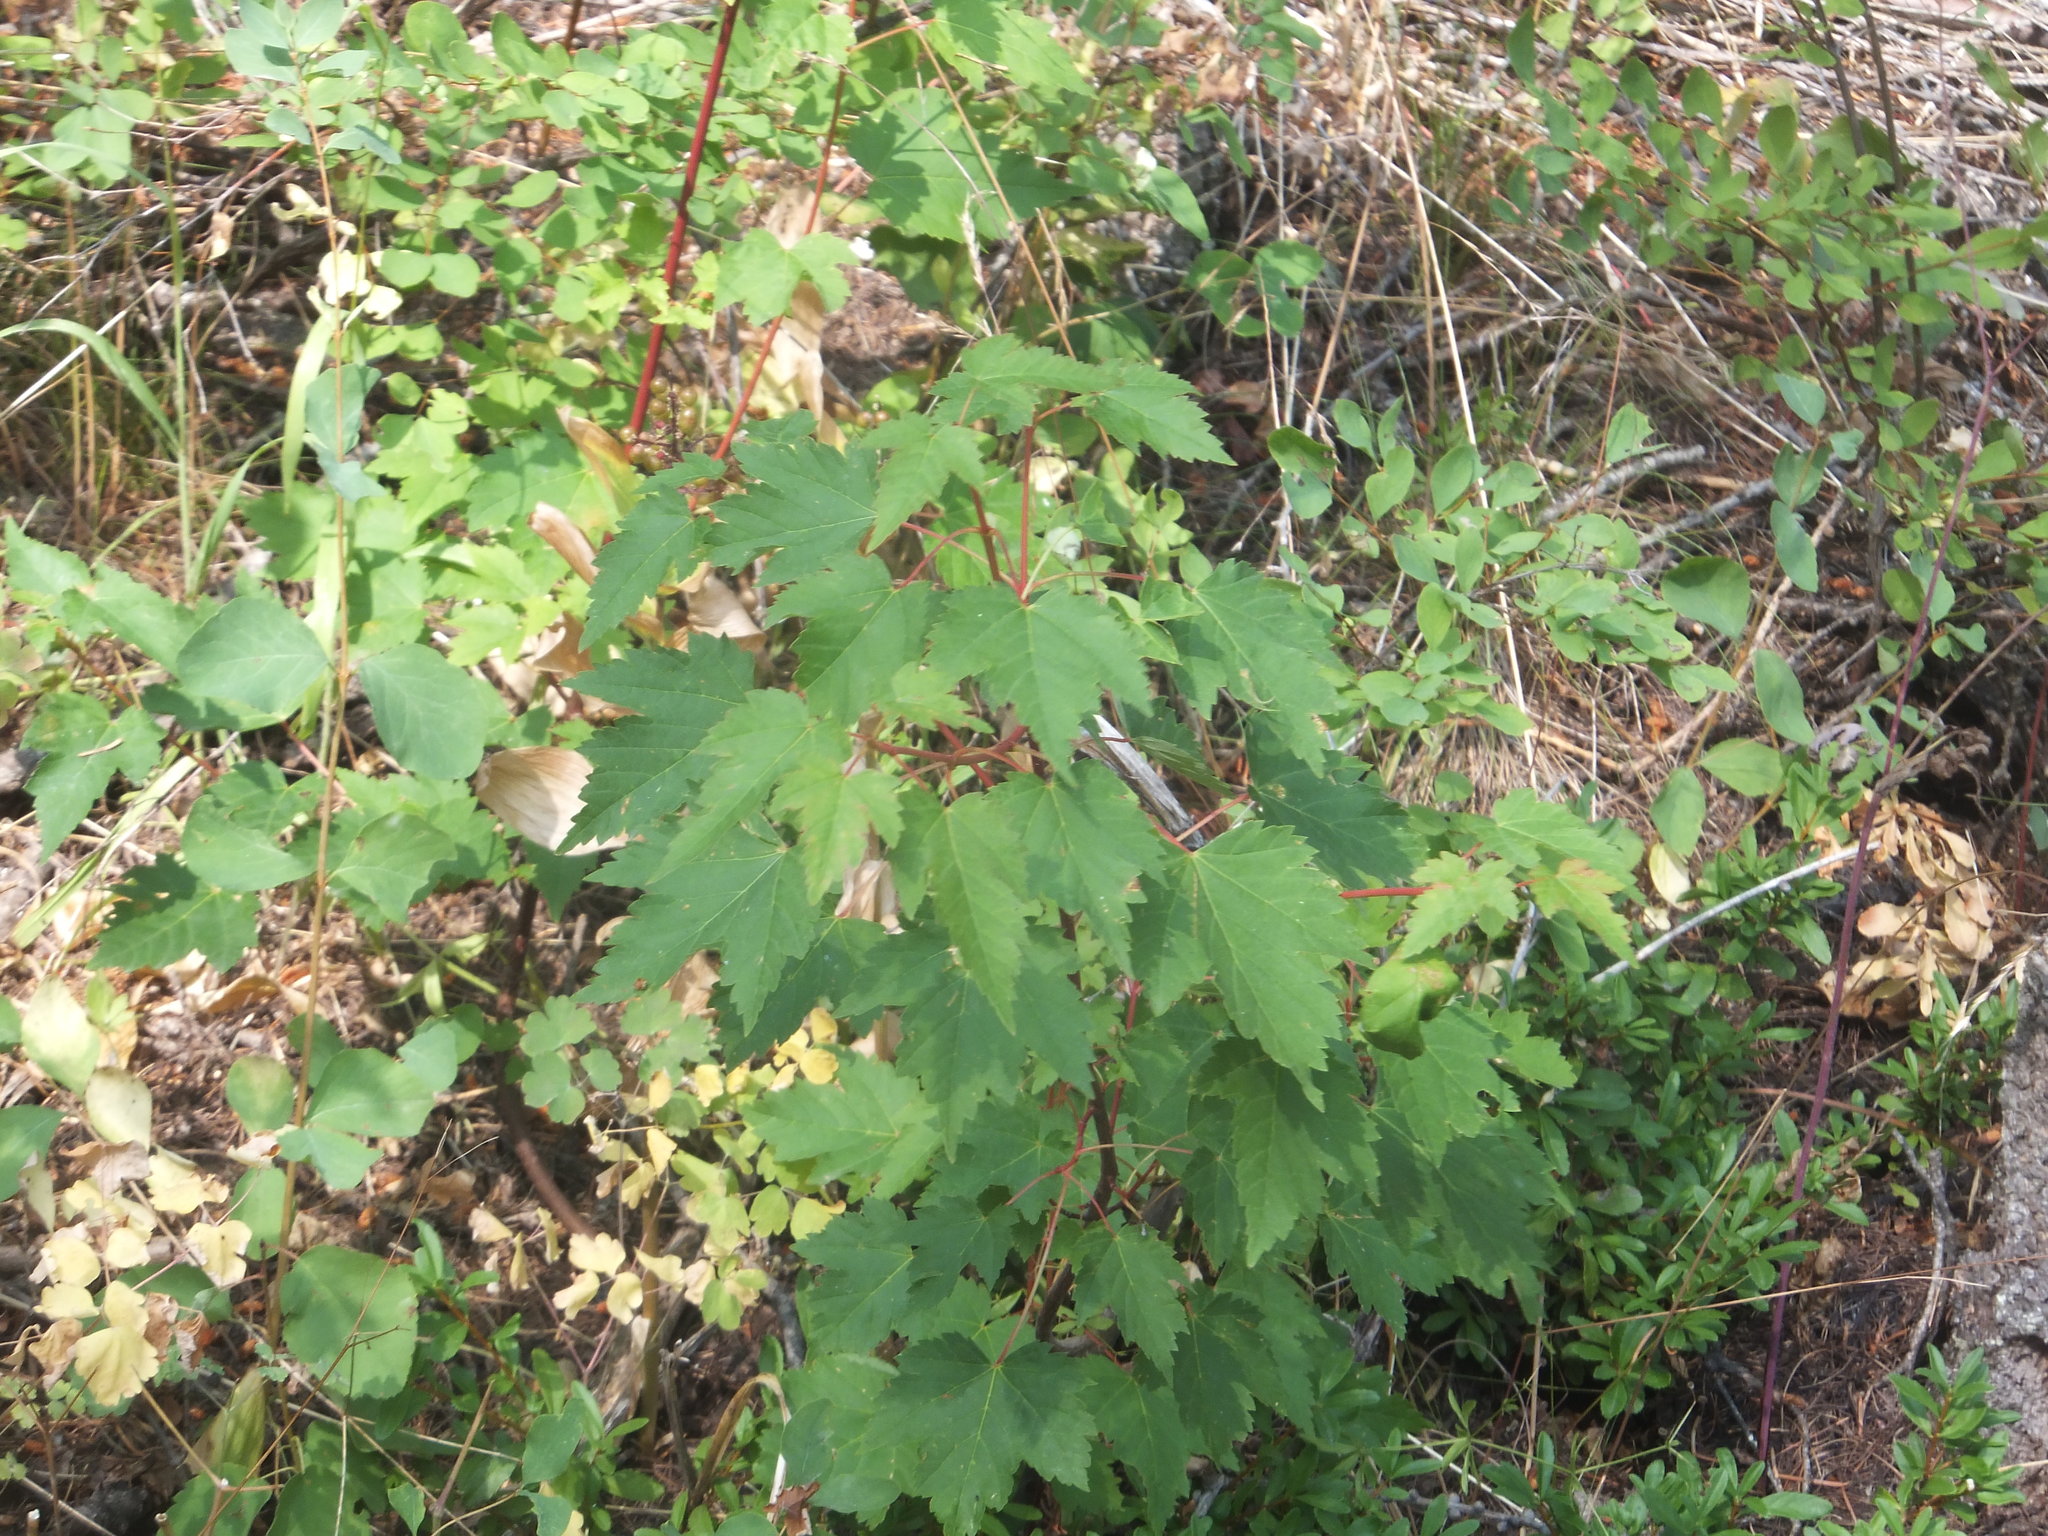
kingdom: Plantae
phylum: Tracheophyta
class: Magnoliopsida
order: Sapindales
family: Sapindaceae
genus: Acer
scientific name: Acer glabrum
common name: Rocky mountain maple
